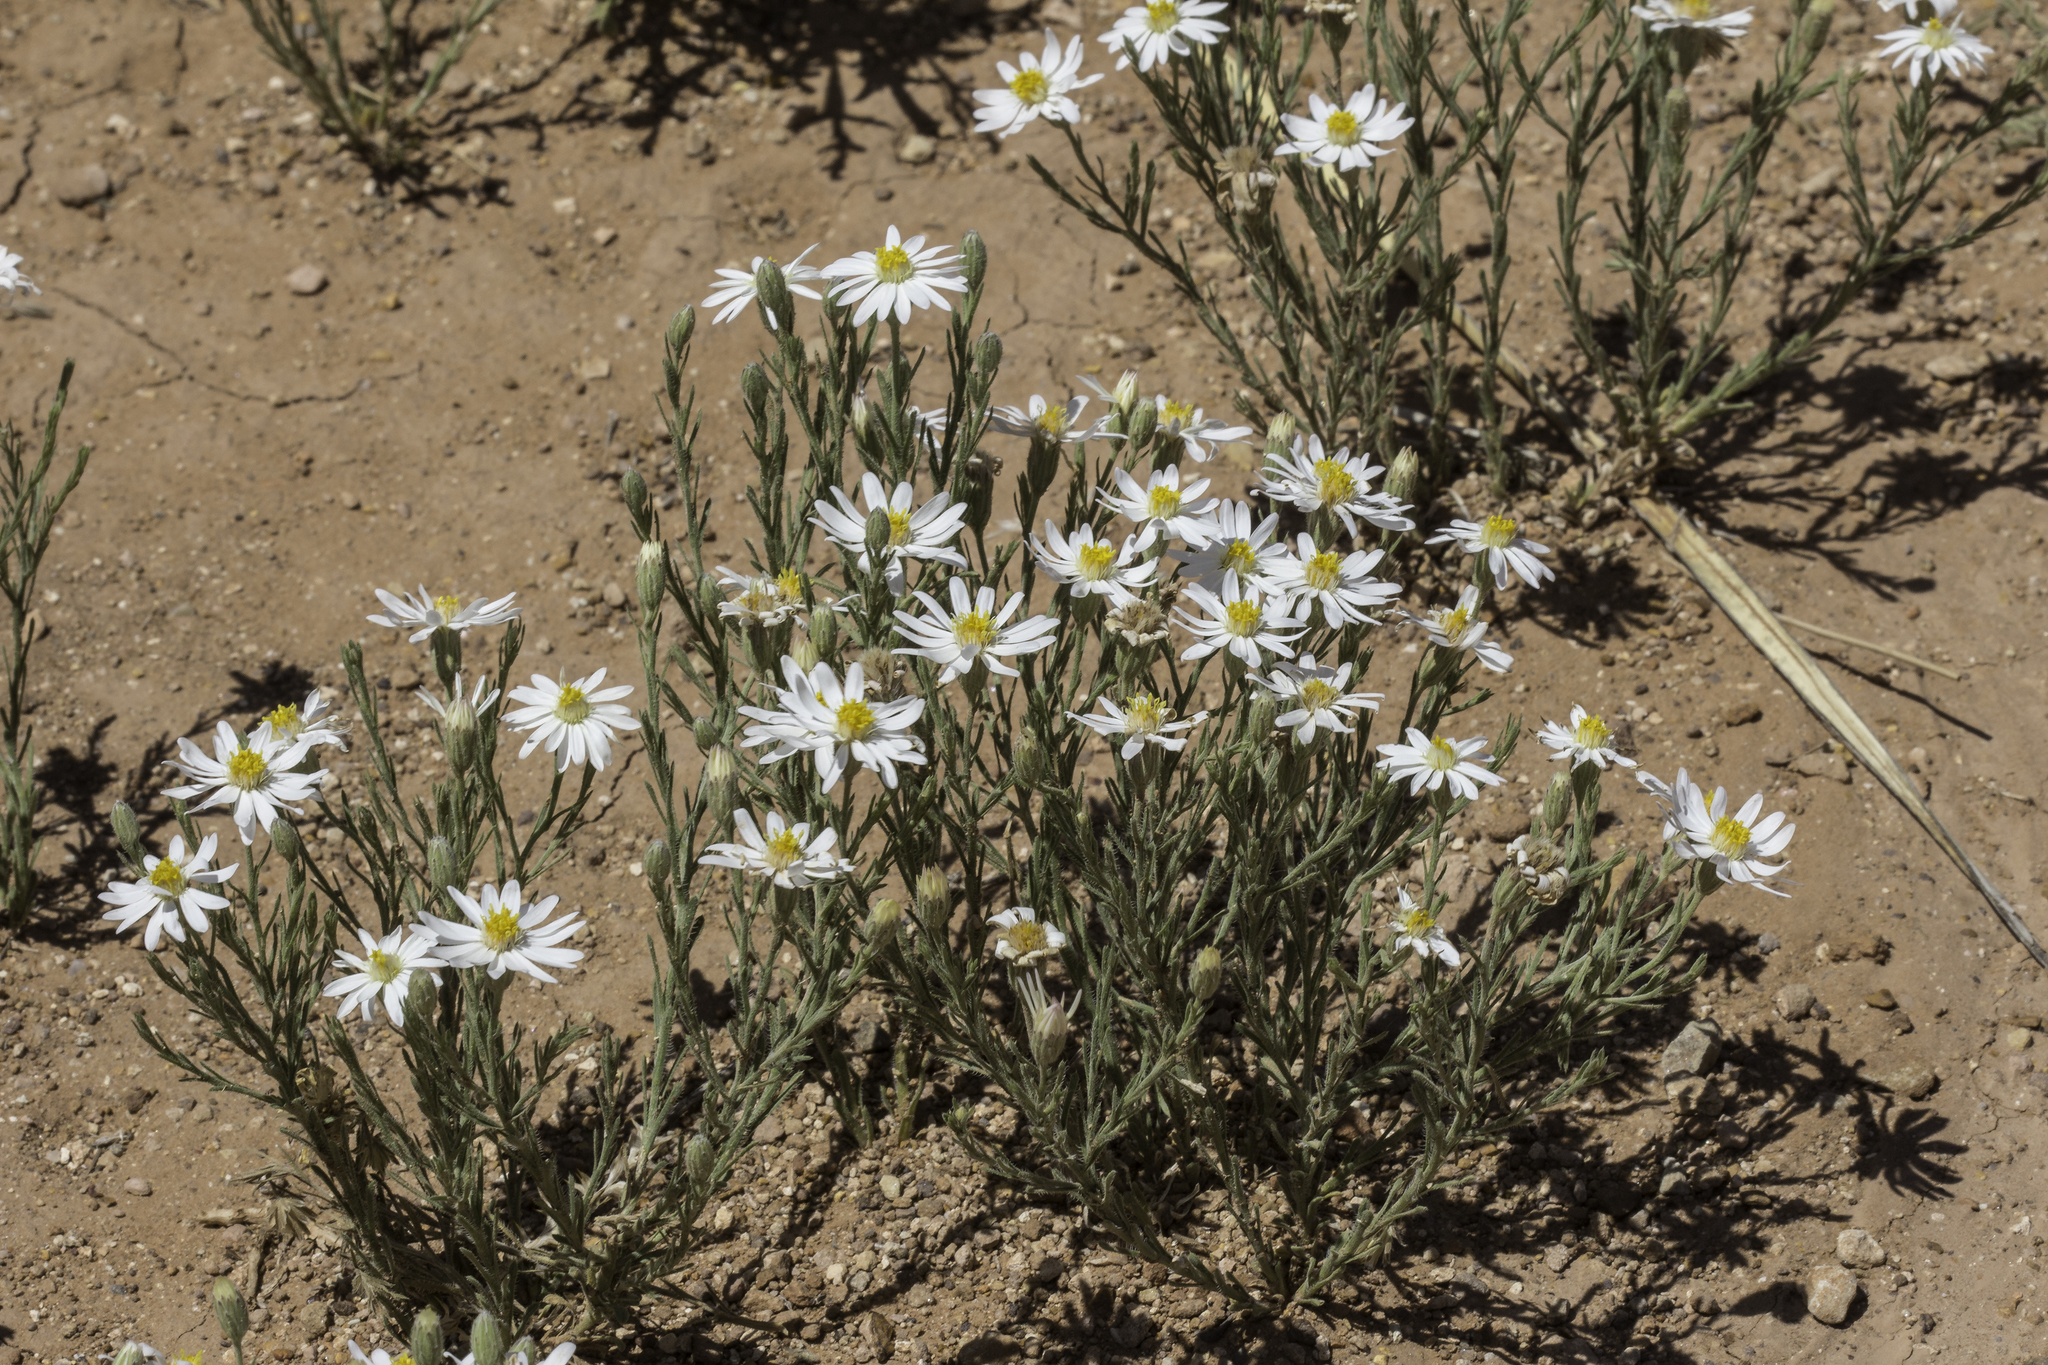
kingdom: Plantae
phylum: Tracheophyta
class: Magnoliopsida
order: Asterales
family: Asteraceae
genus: Chaetopappa
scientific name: Chaetopappa ericoides
